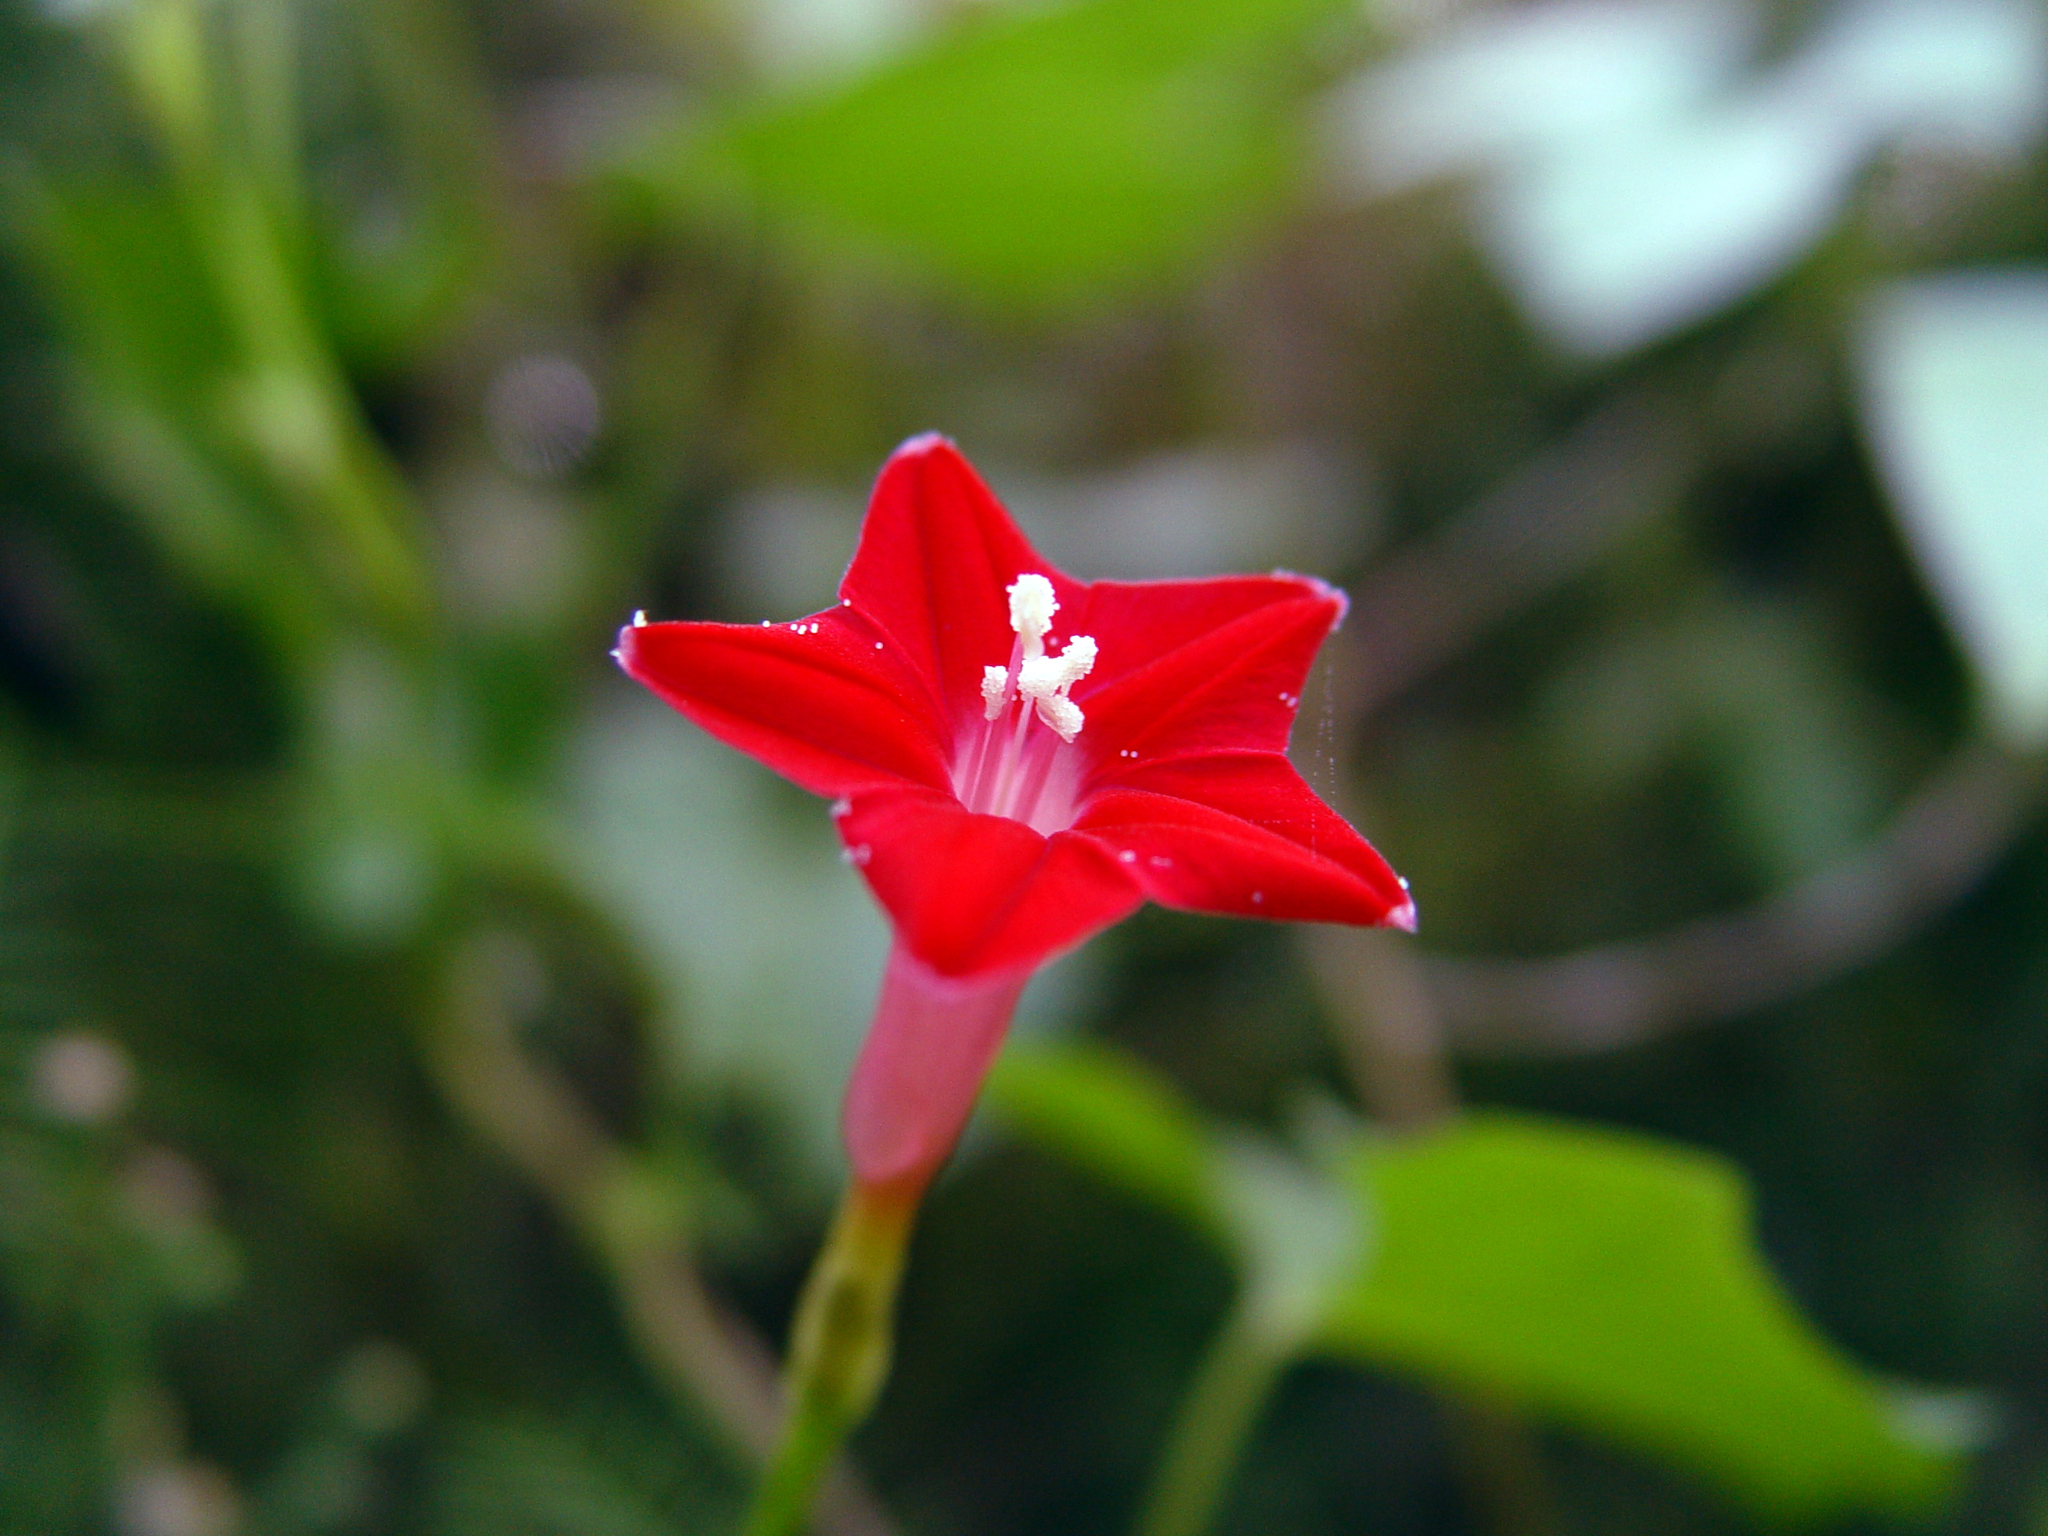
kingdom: Plantae
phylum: Tracheophyta
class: Magnoliopsida
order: Solanales
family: Convolvulaceae
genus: Ipomoea
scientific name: Ipomoea quamoclit
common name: Cypress vine
